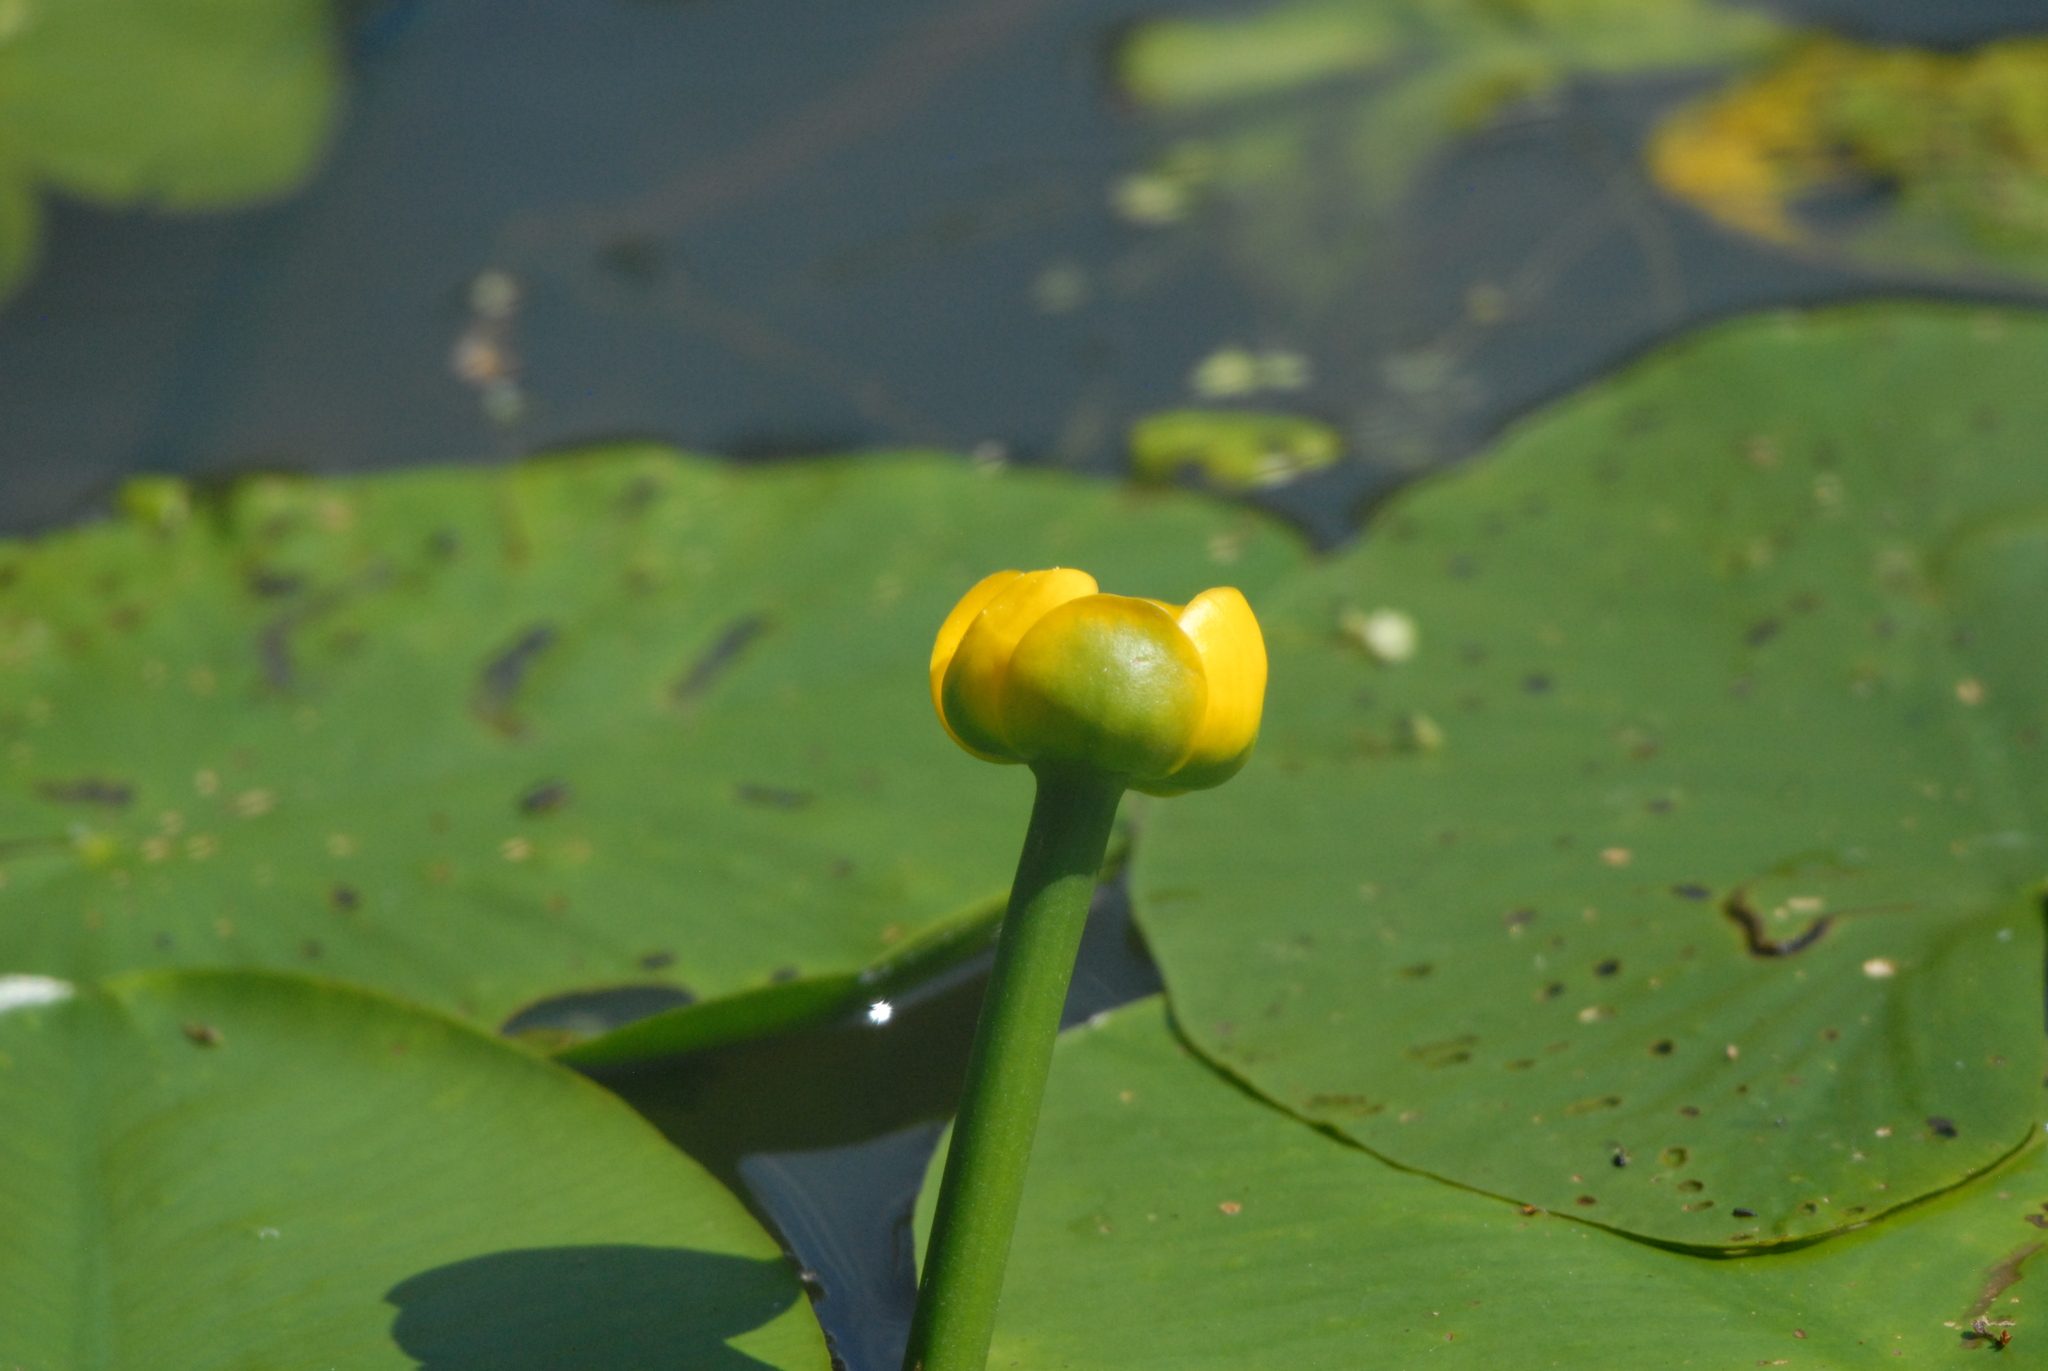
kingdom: Plantae
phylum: Tracheophyta
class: Magnoliopsida
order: Nymphaeales
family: Nymphaeaceae
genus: Nuphar
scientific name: Nuphar lutea
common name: Yellow water-lily
